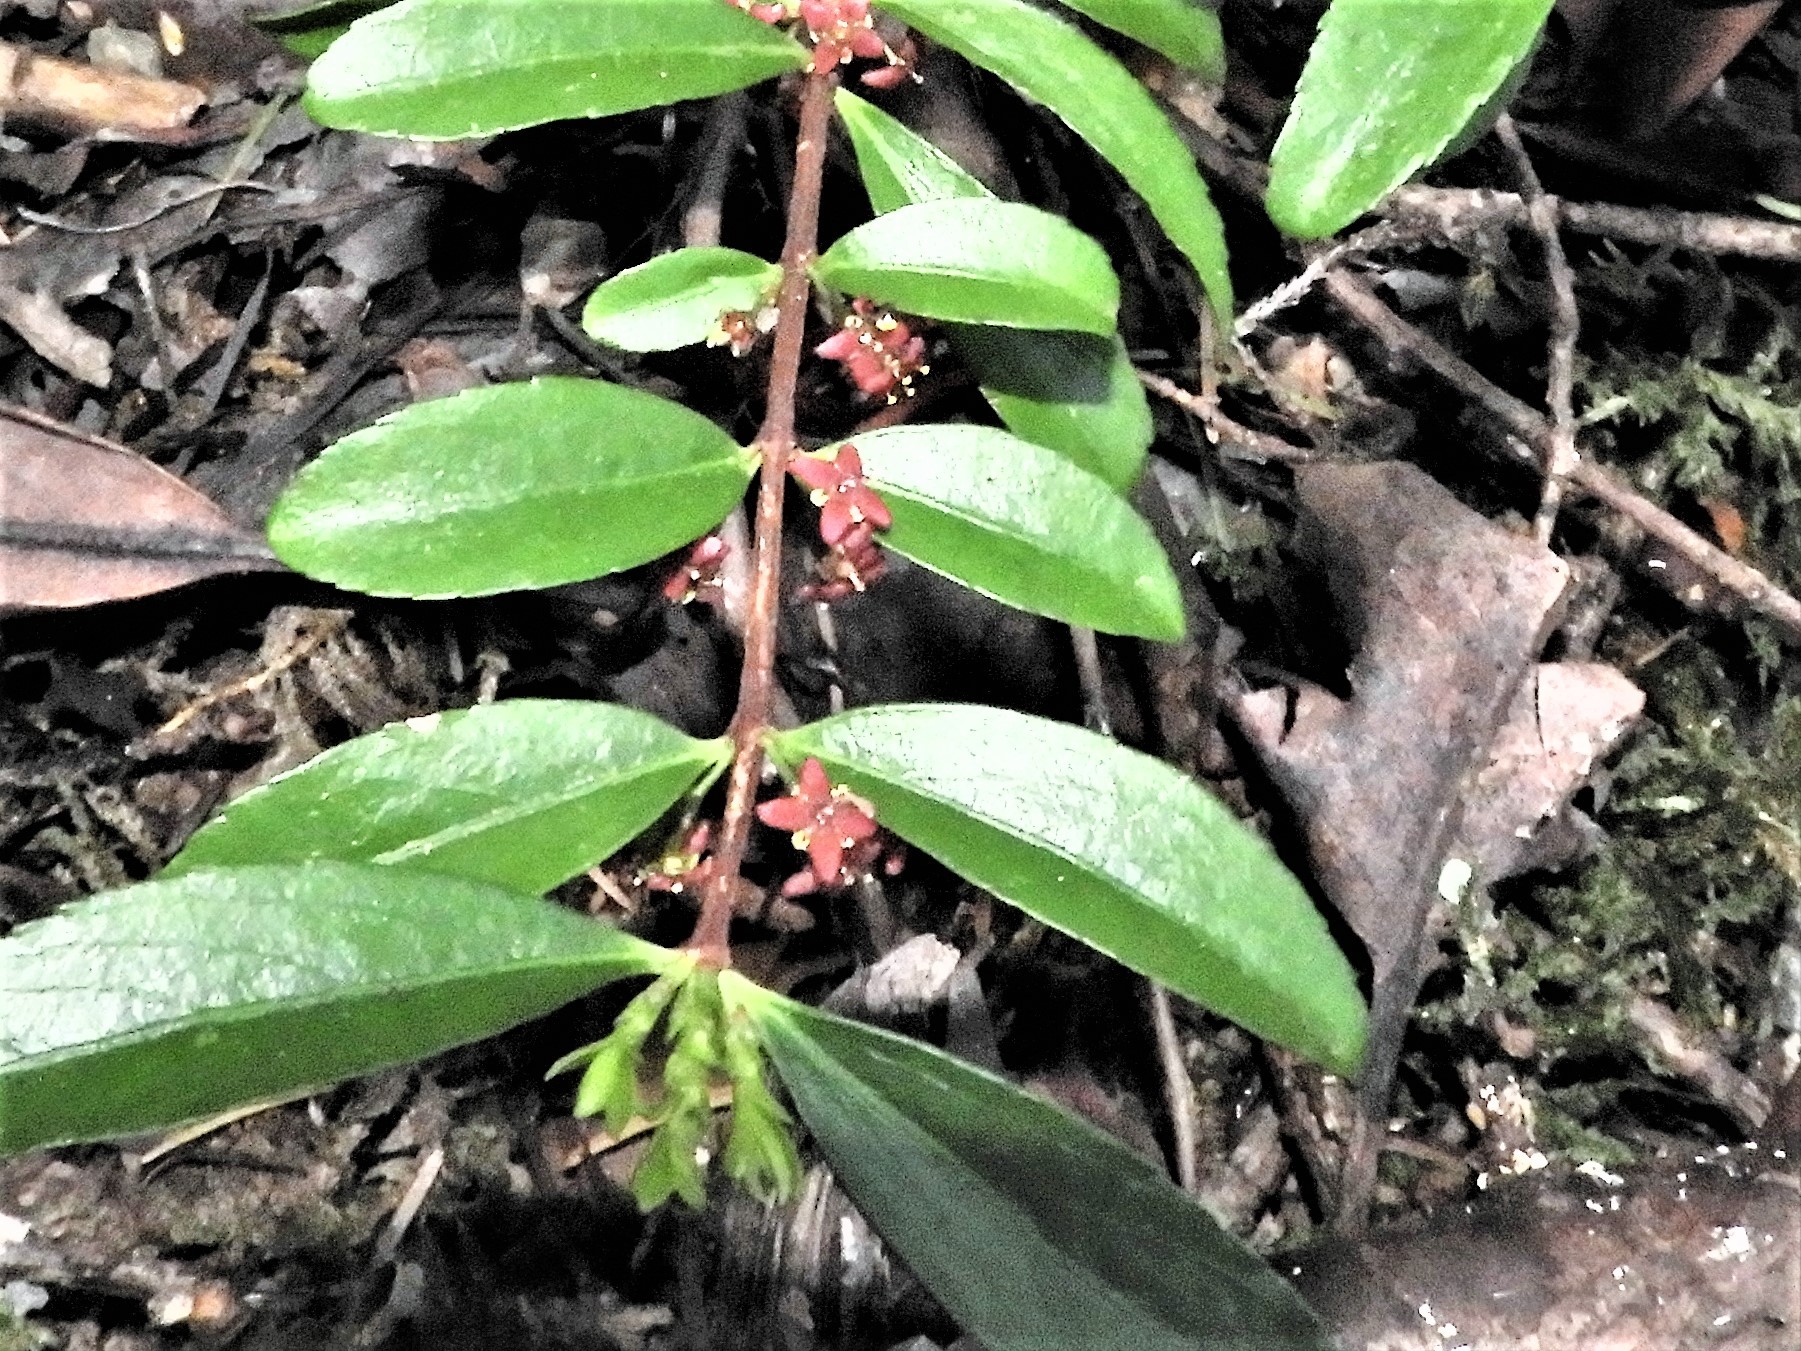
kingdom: Plantae
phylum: Tracheophyta
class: Magnoliopsida
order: Celastrales
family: Celastraceae
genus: Paxistima
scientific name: Paxistima myrsinites
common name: Mountain-lover
